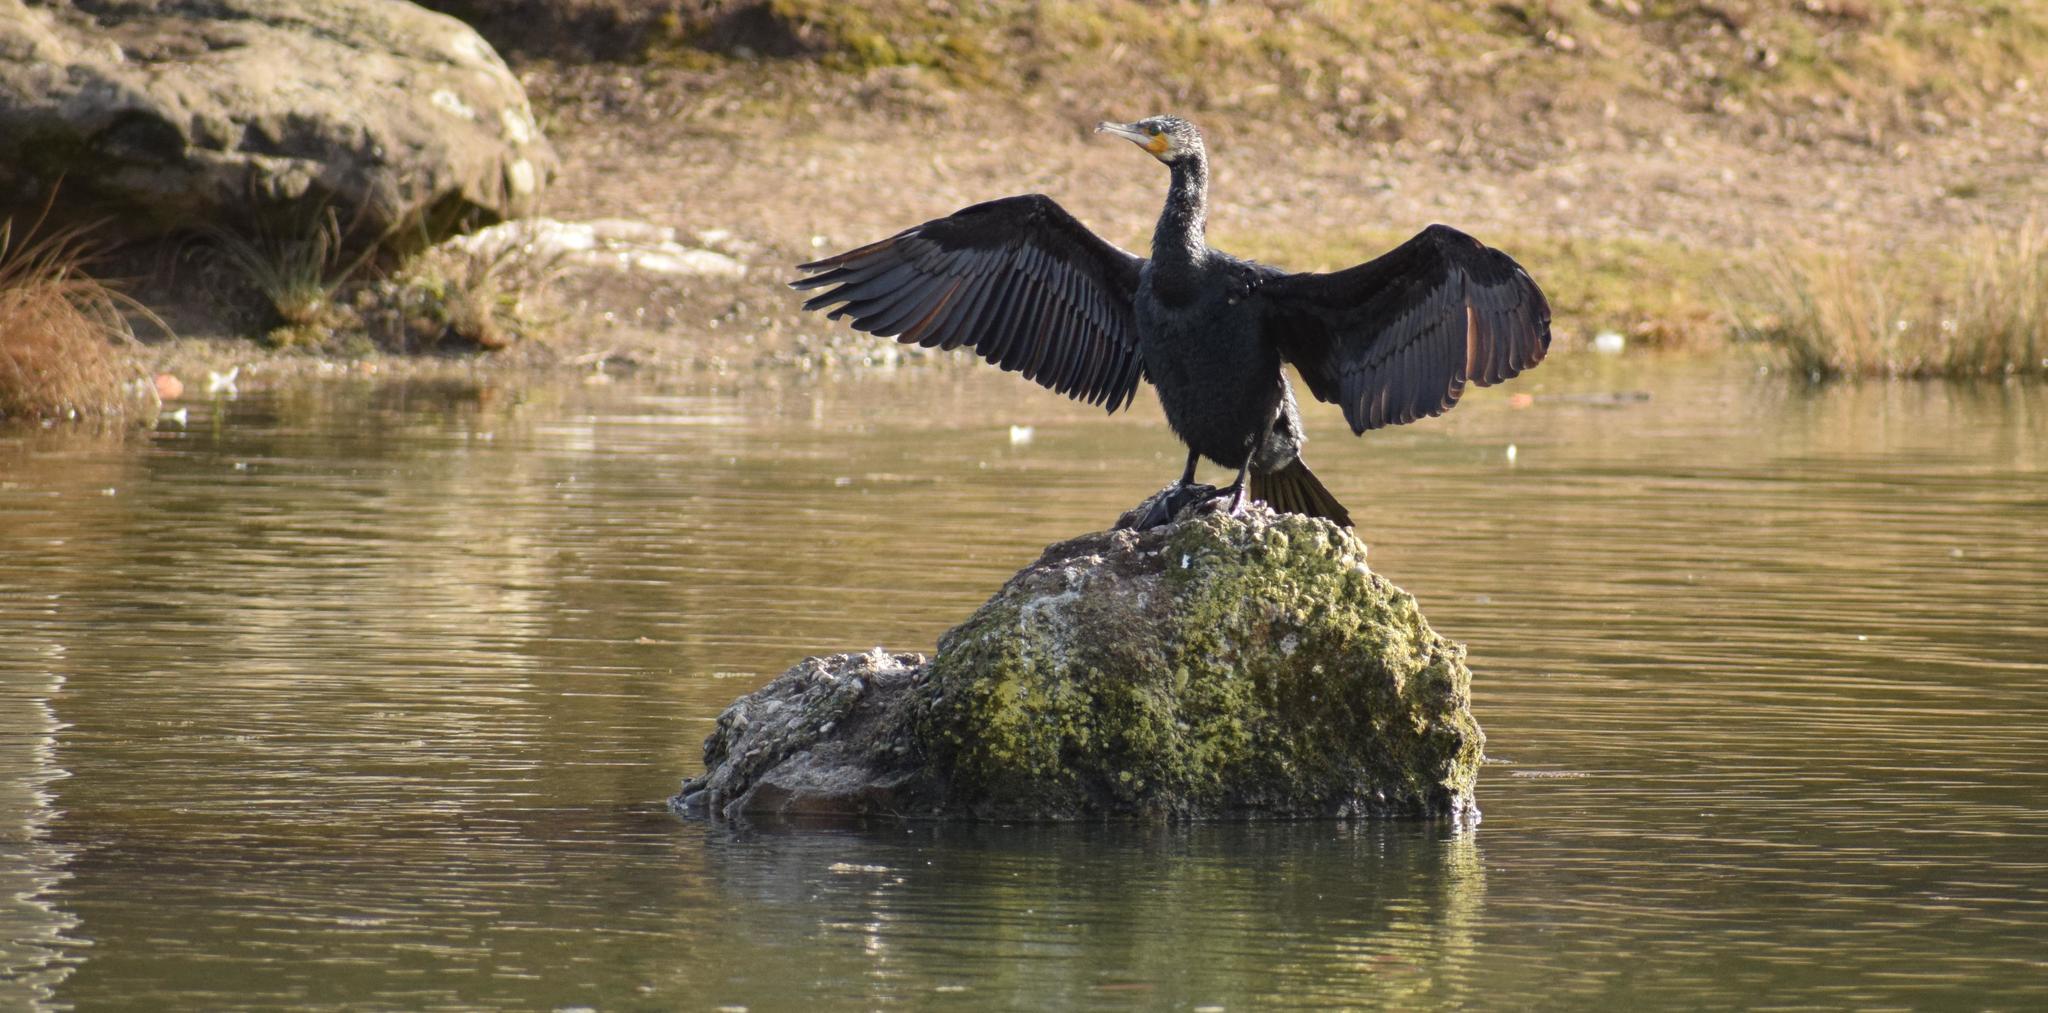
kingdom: Animalia
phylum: Chordata
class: Aves
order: Suliformes
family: Phalacrocoracidae
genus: Phalacrocorax
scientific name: Phalacrocorax carbo
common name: Great cormorant
